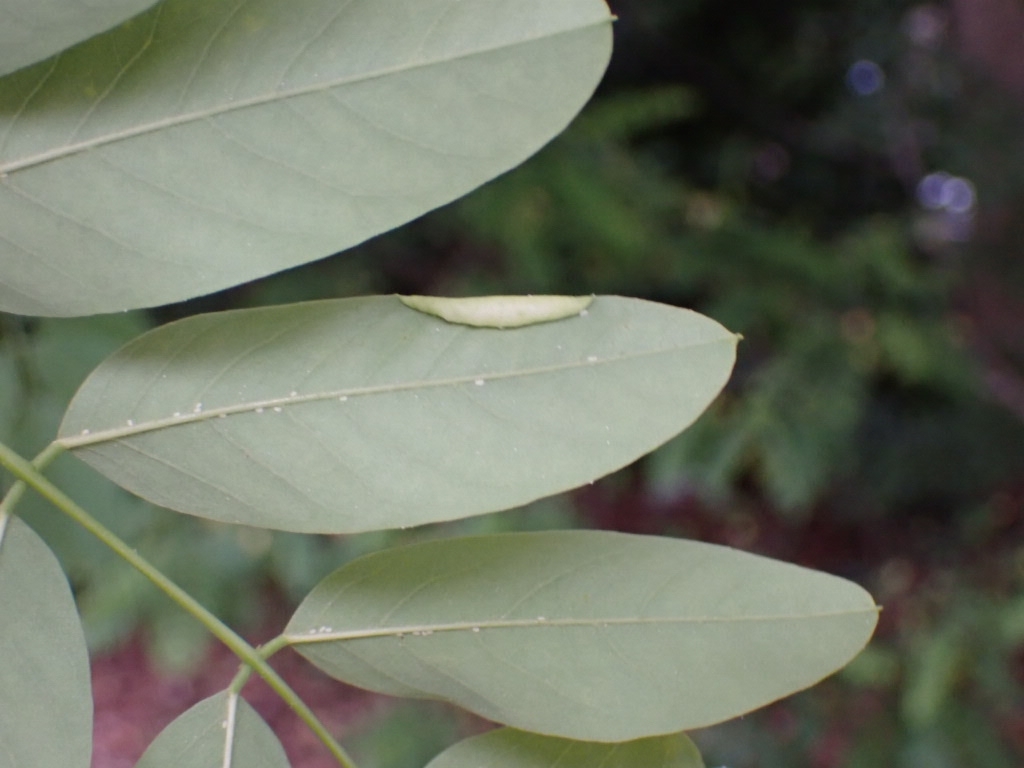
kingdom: Animalia
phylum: Arthropoda
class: Insecta
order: Diptera
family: Cecidomyiidae
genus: Obolodiplosis
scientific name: Obolodiplosis robiniae
